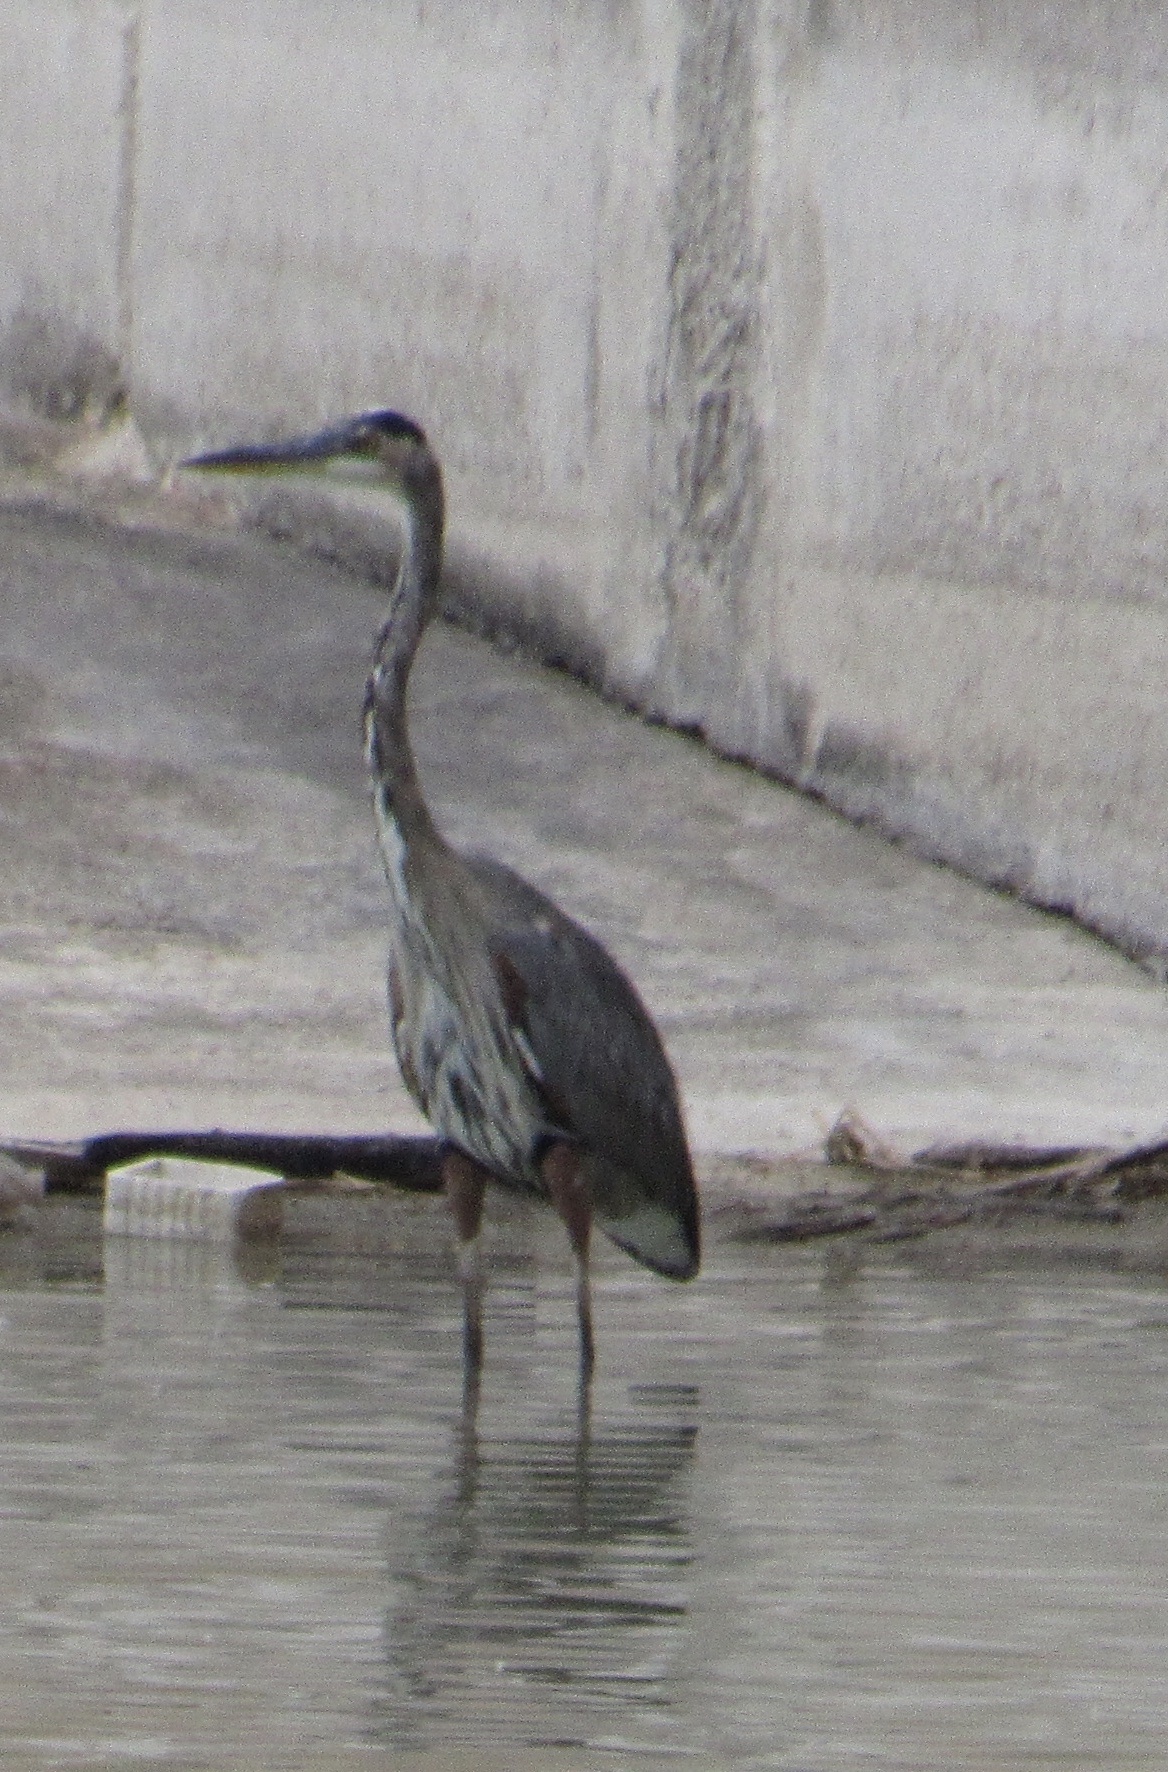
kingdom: Animalia
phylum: Chordata
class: Aves
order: Pelecaniformes
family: Ardeidae
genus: Ardea
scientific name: Ardea herodias
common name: Great blue heron
